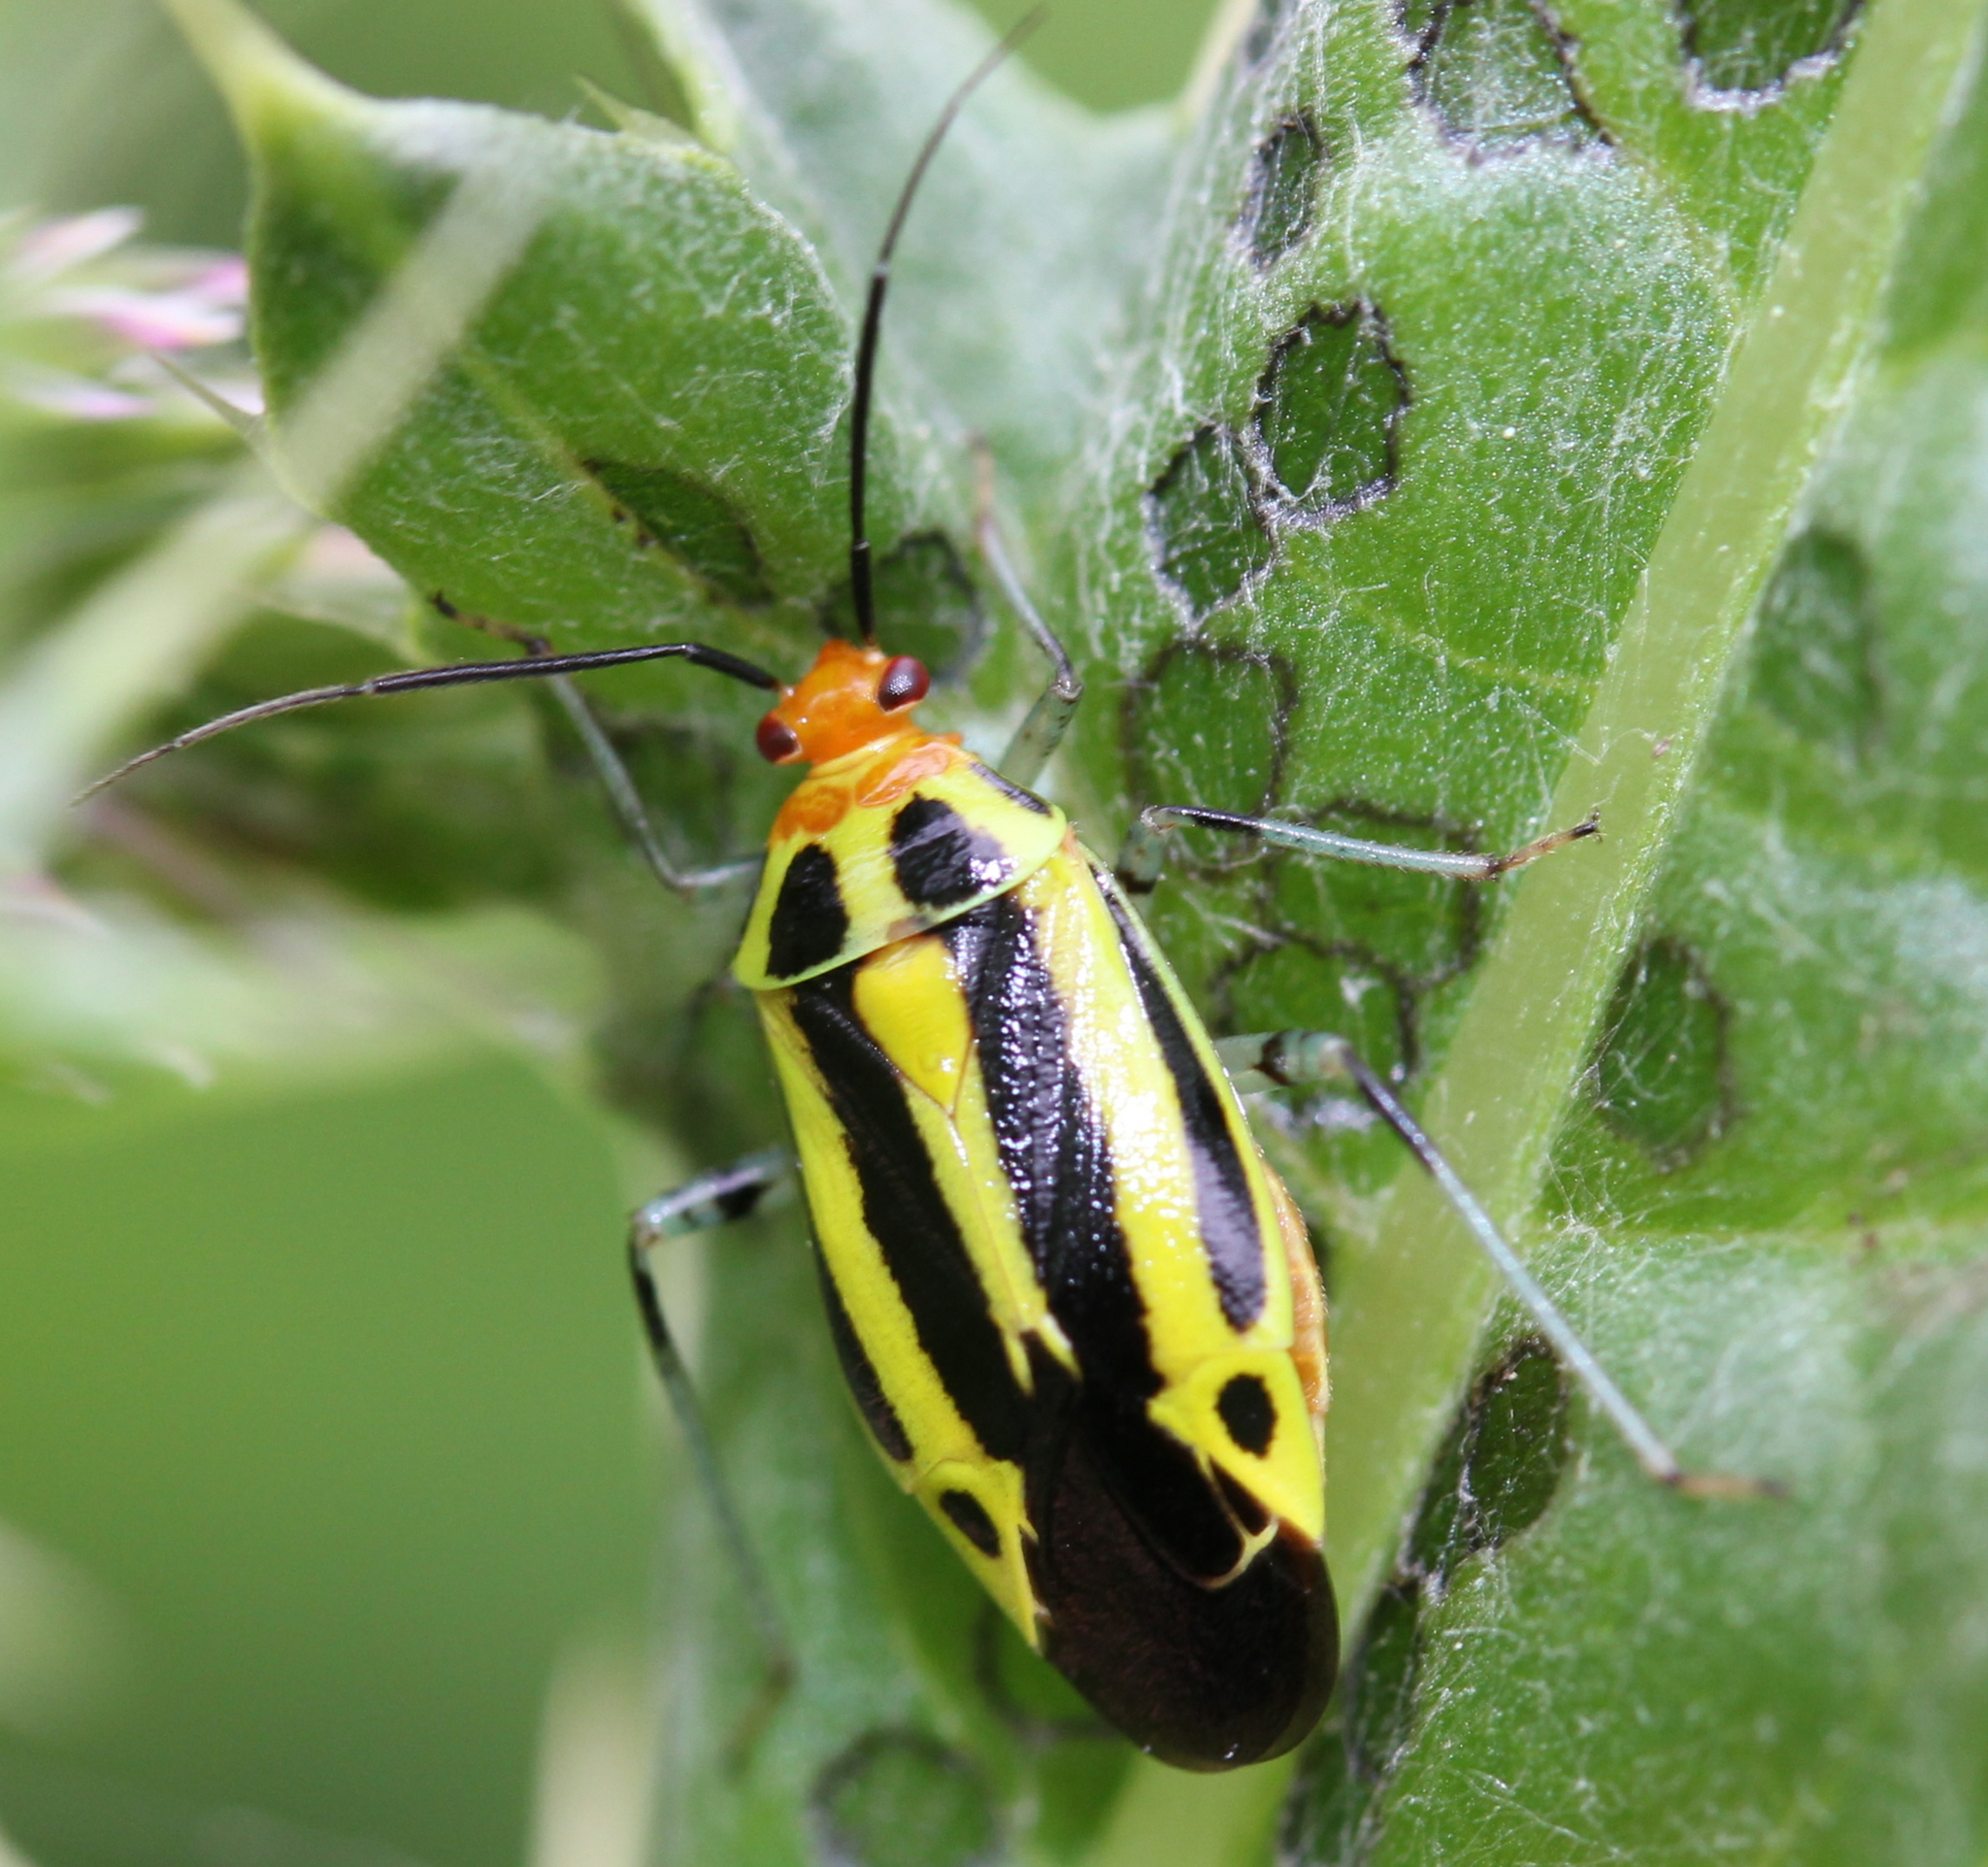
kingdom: Animalia
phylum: Arthropoda
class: Insecta
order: Hemiptera
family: Miridae
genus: Poecilocapsus
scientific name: Poecilocapsus lineatus
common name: Four-lined plant bug
